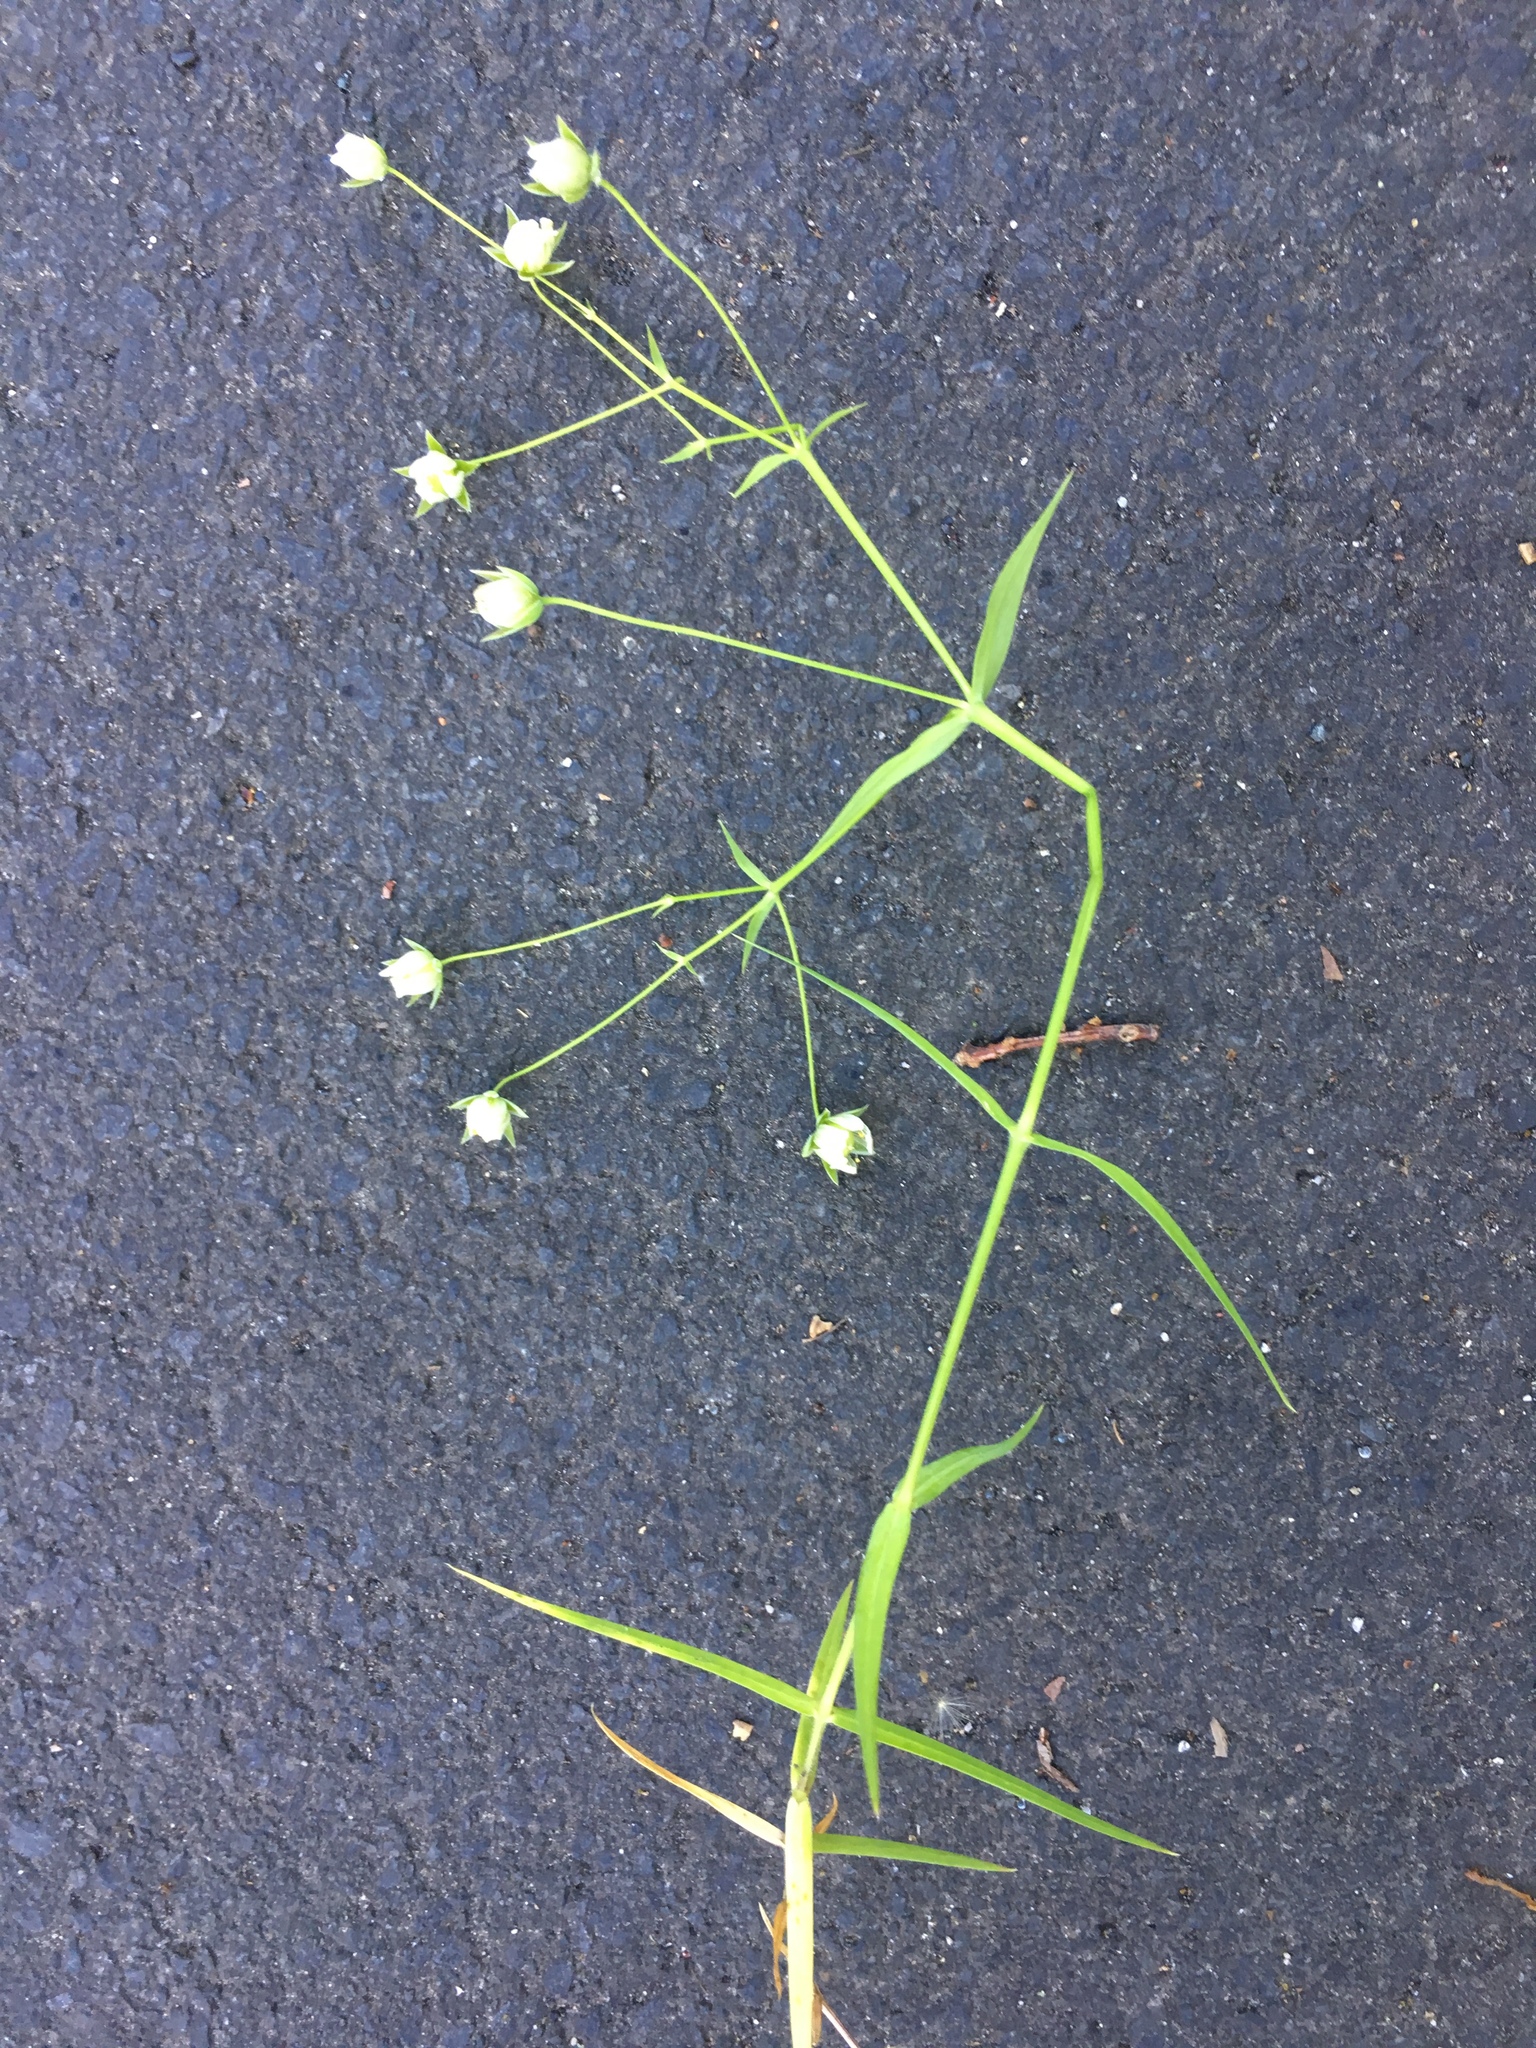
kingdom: Plantae
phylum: Tracheophyta
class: Magnoliopsida
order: Caryophyllales
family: Caryophyllaceae
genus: Rabelera
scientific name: Rabelera holostea
